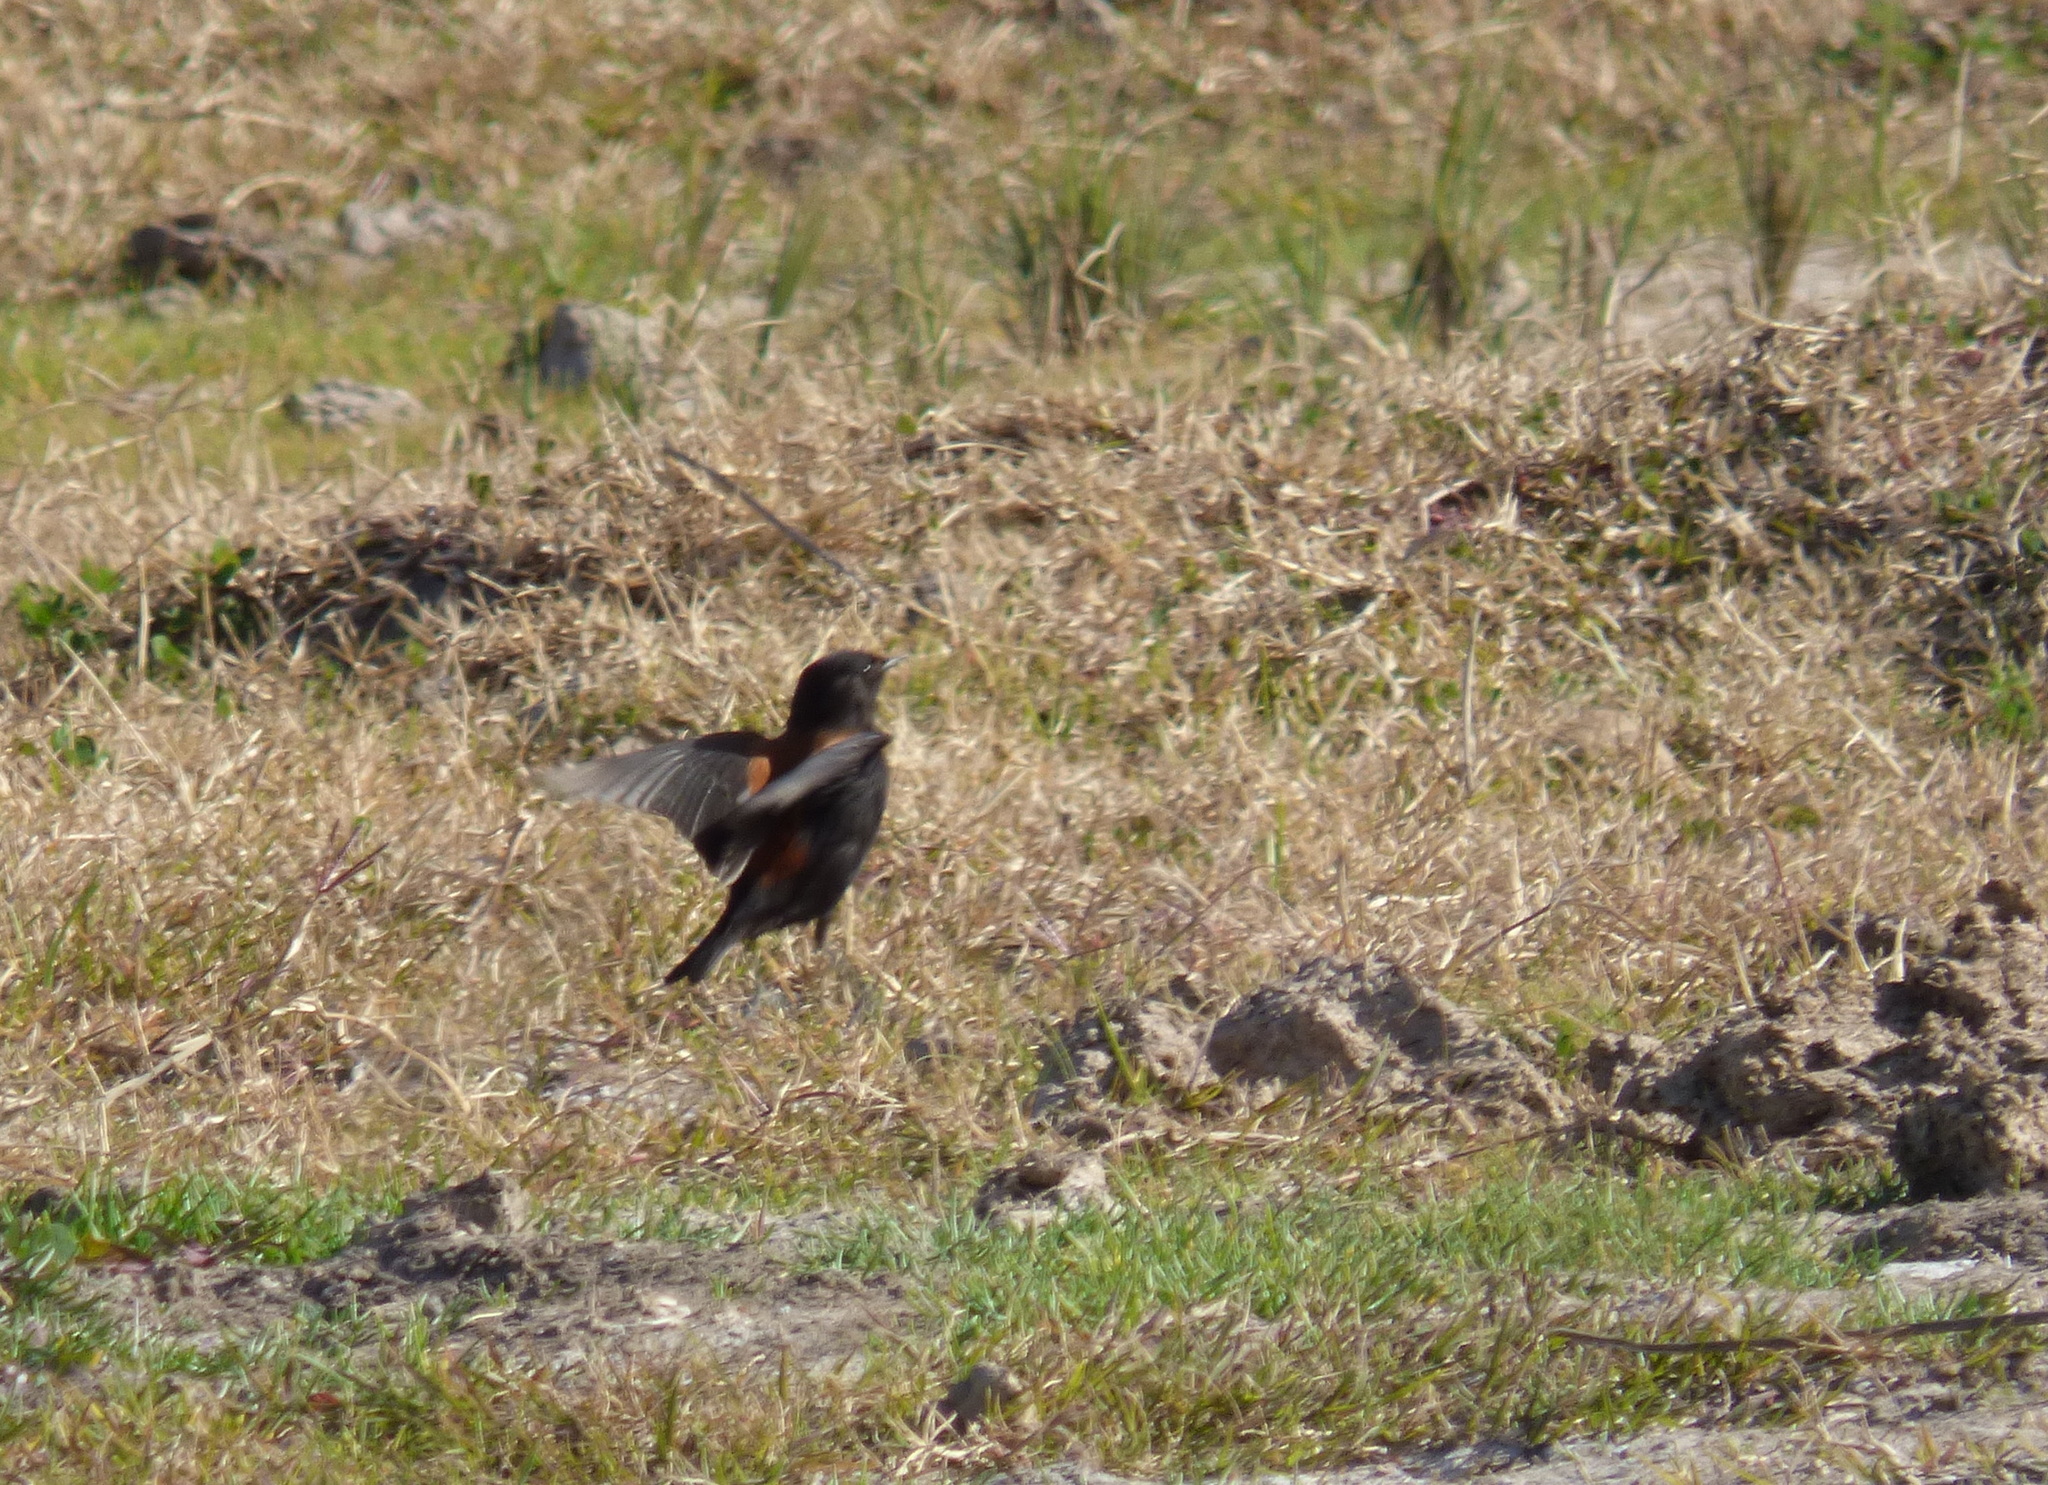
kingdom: Animalia
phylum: Chordata
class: Aves
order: Passeriformes
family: Tyrannidae
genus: Lessonia
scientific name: Lessonia rufa
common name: Austral negrito
